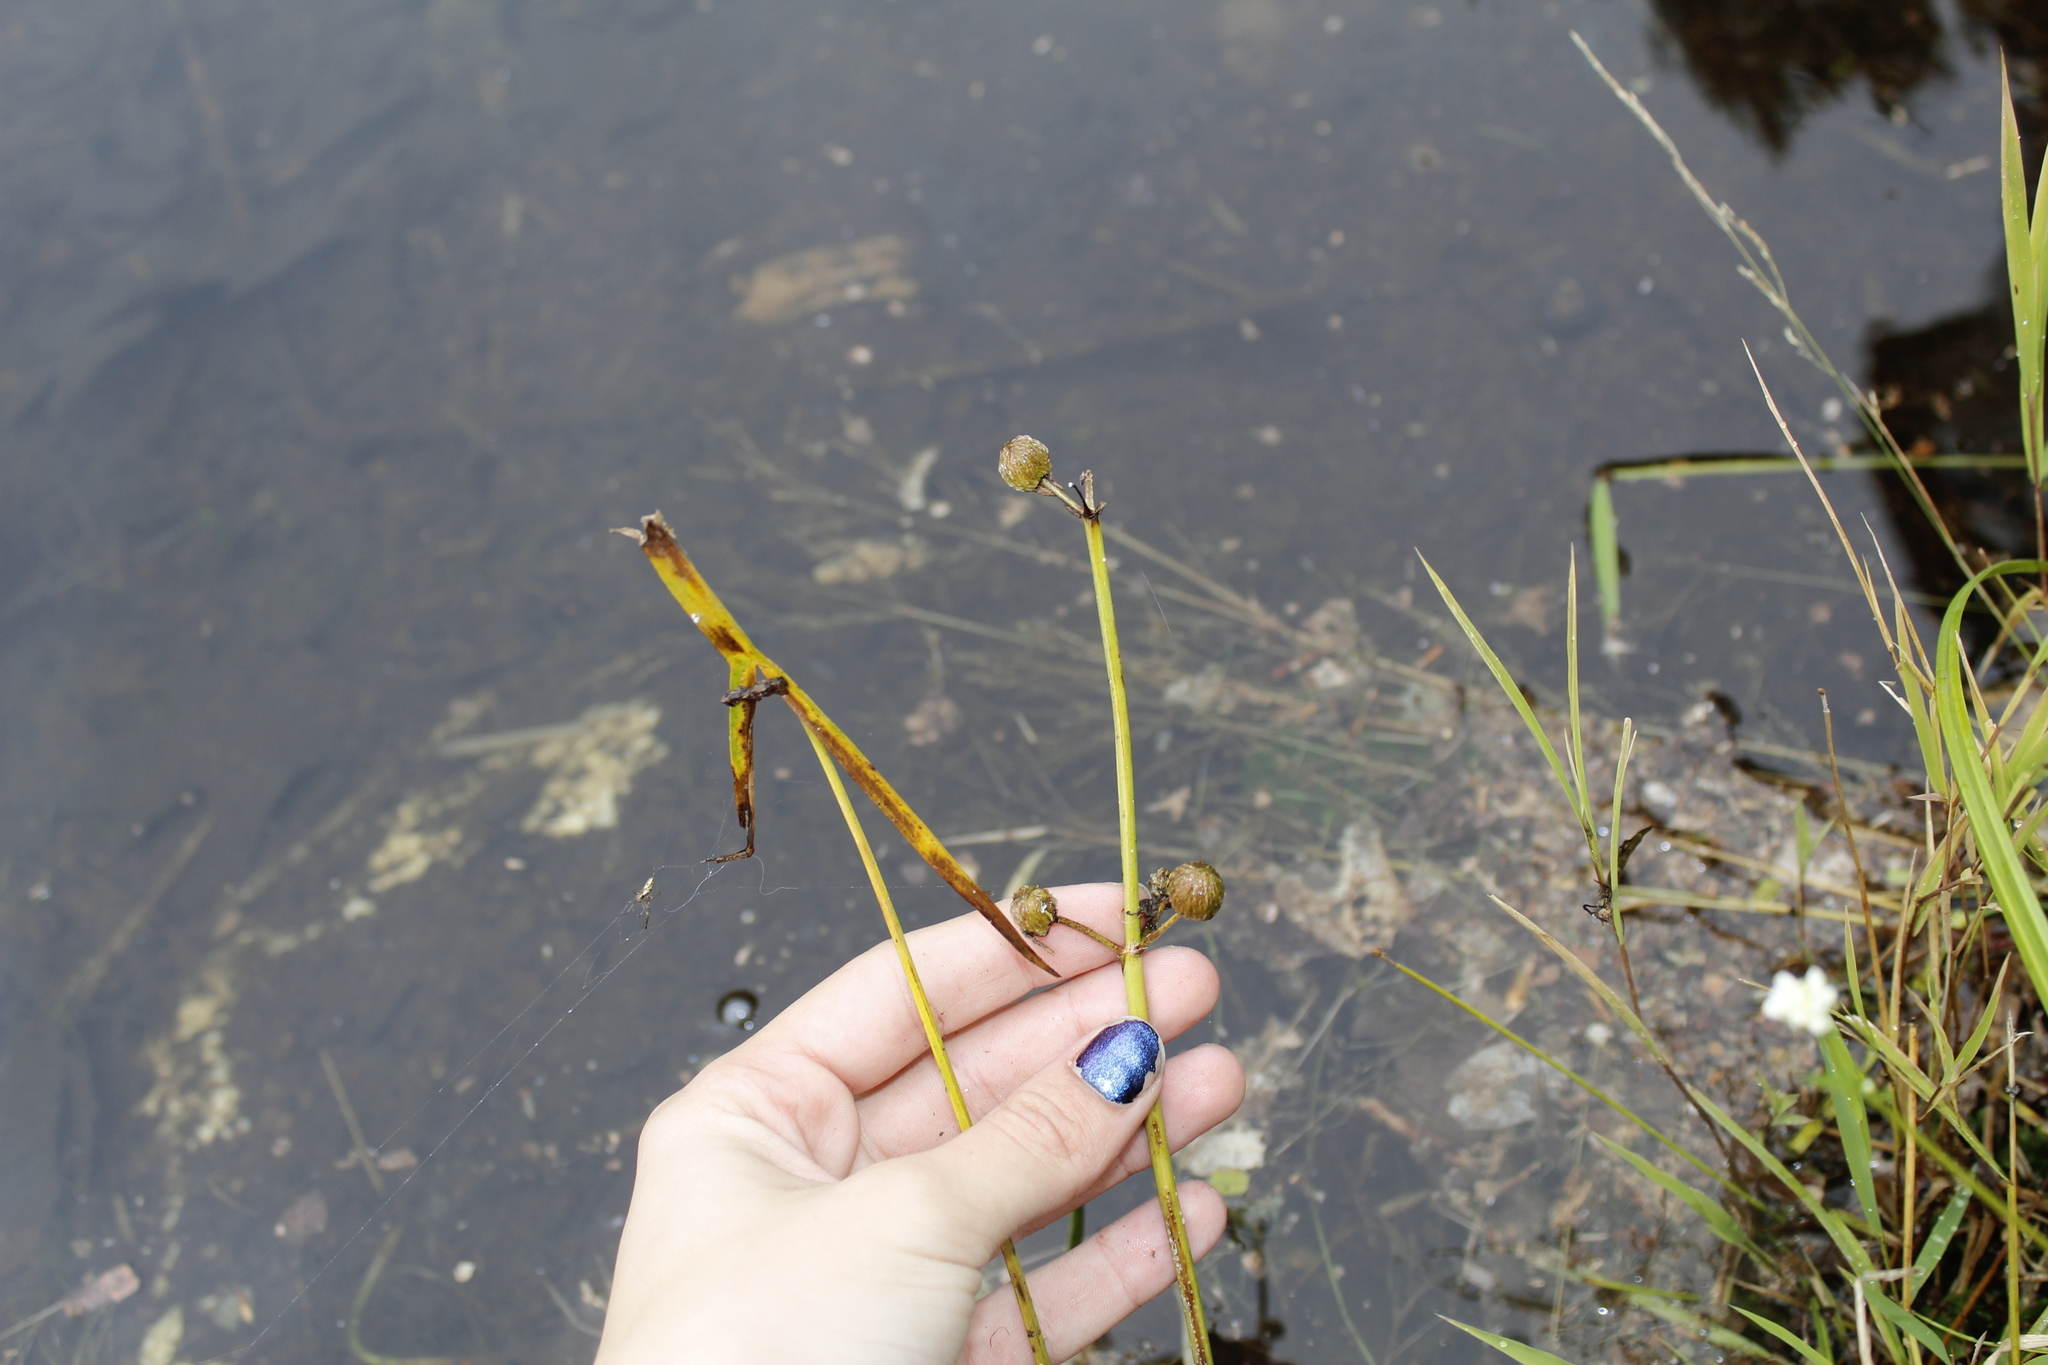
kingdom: Plantae
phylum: Tracheophyta
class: Liliopsida
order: Alismatales
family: Alismataceae
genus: Sagittaria
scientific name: Sagittaria latifolia
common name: Duck-potato
